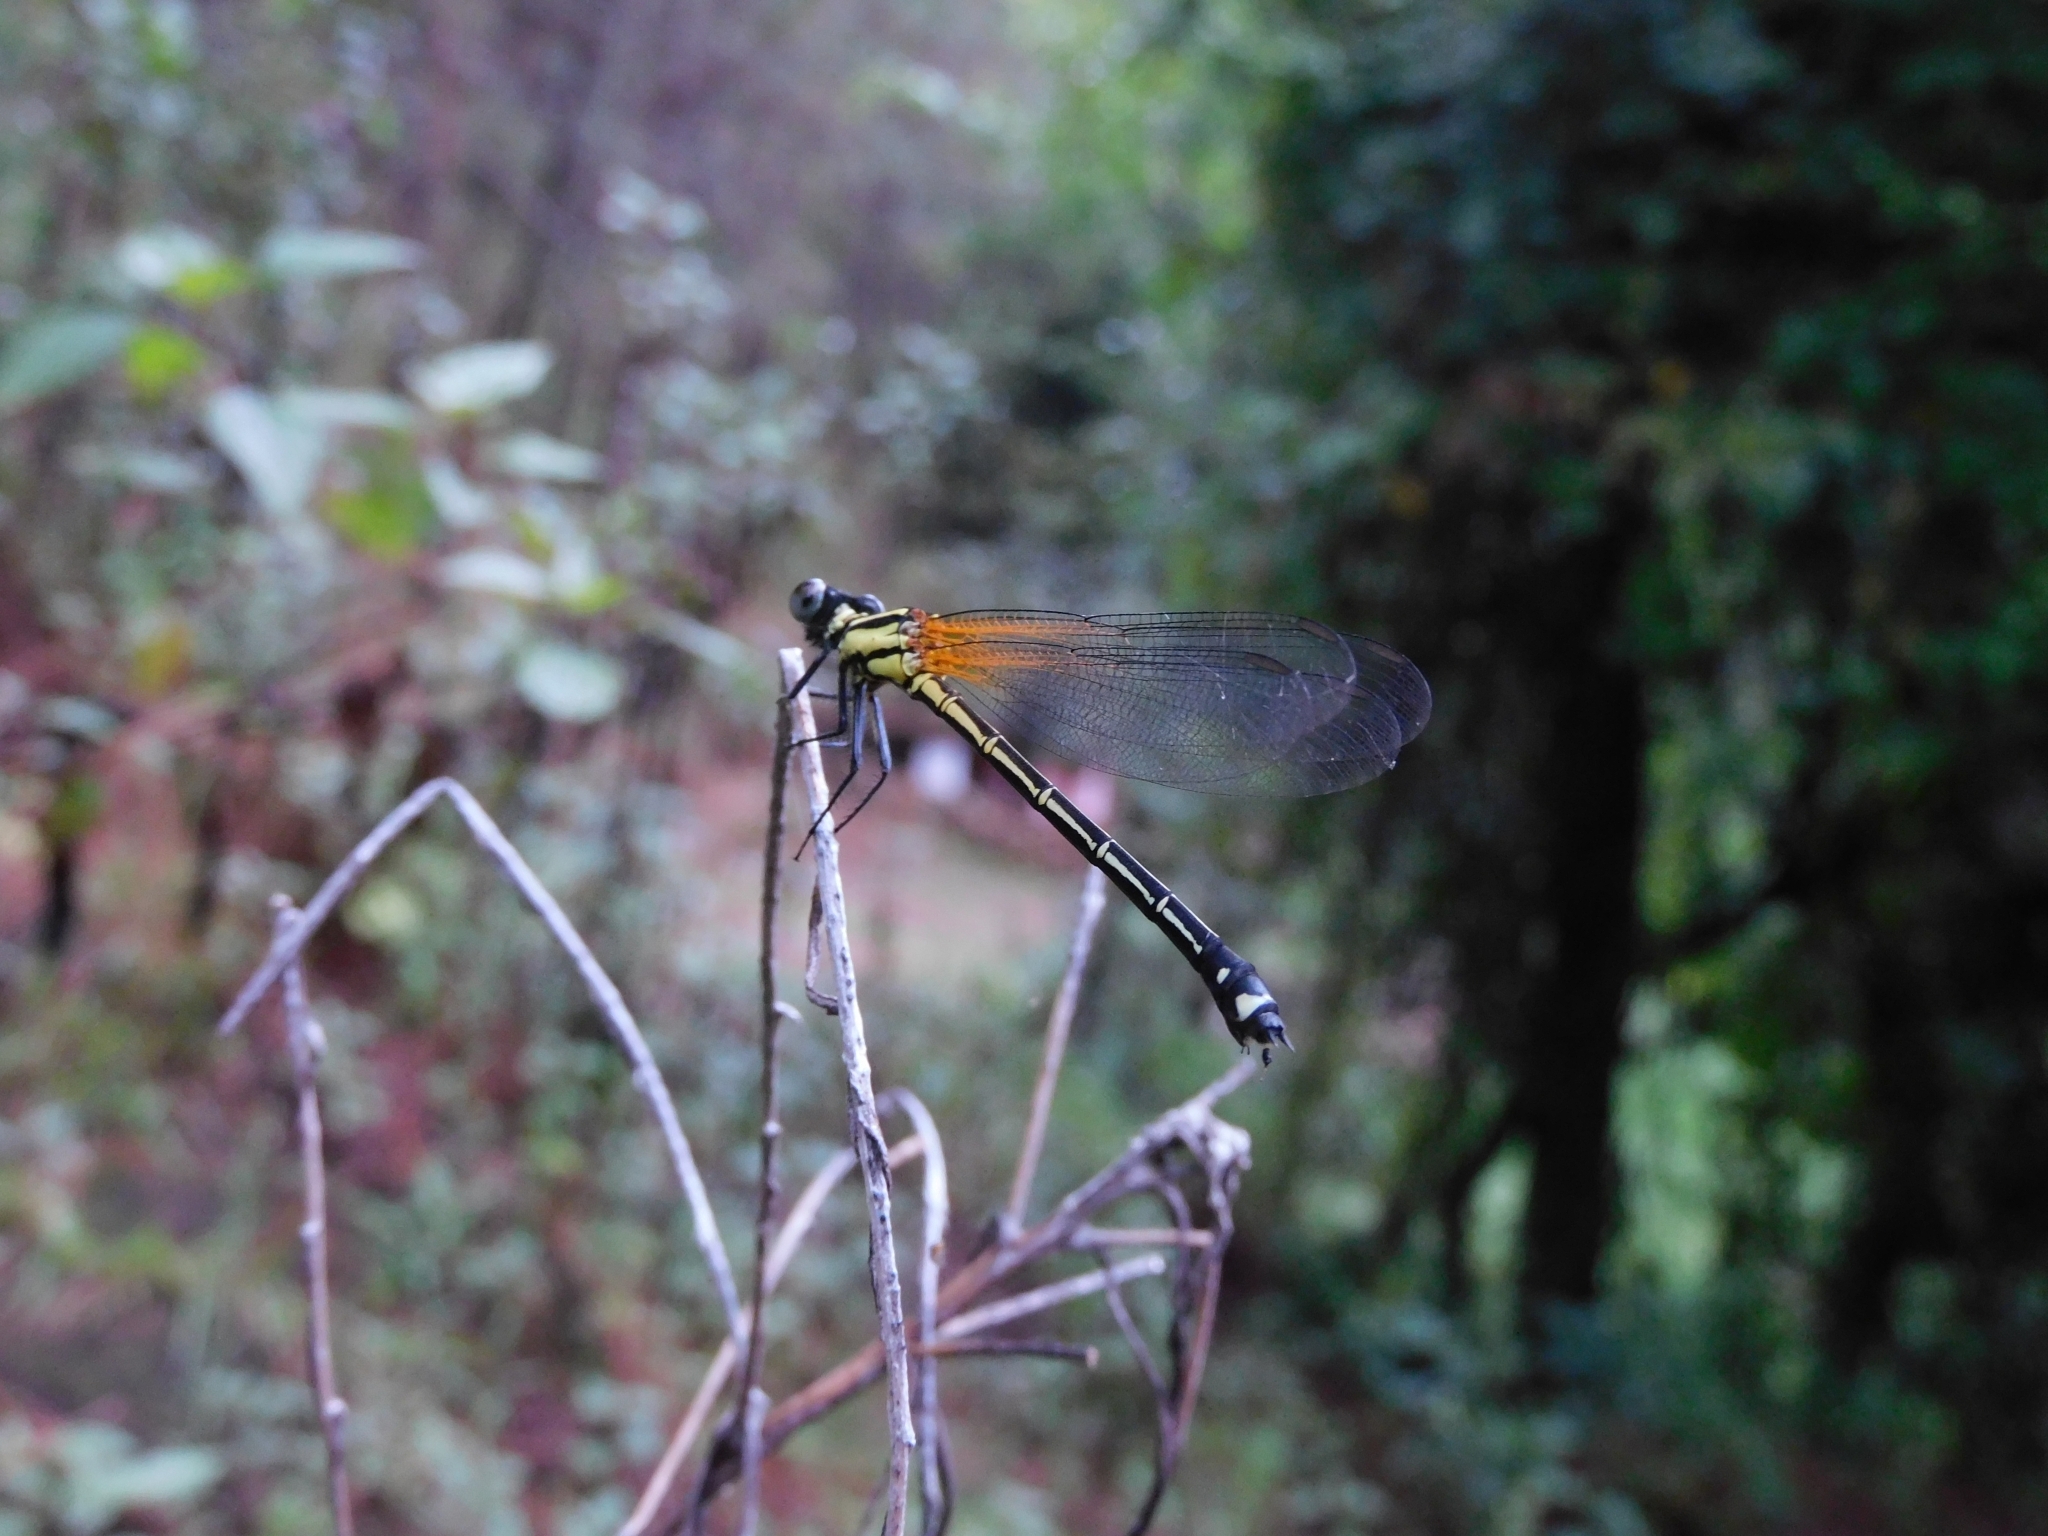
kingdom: Animalia
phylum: Arthropoda
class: Insecta
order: Odonata
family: Euphaeidae
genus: Anisopleura
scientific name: Anisopleura lestoides
